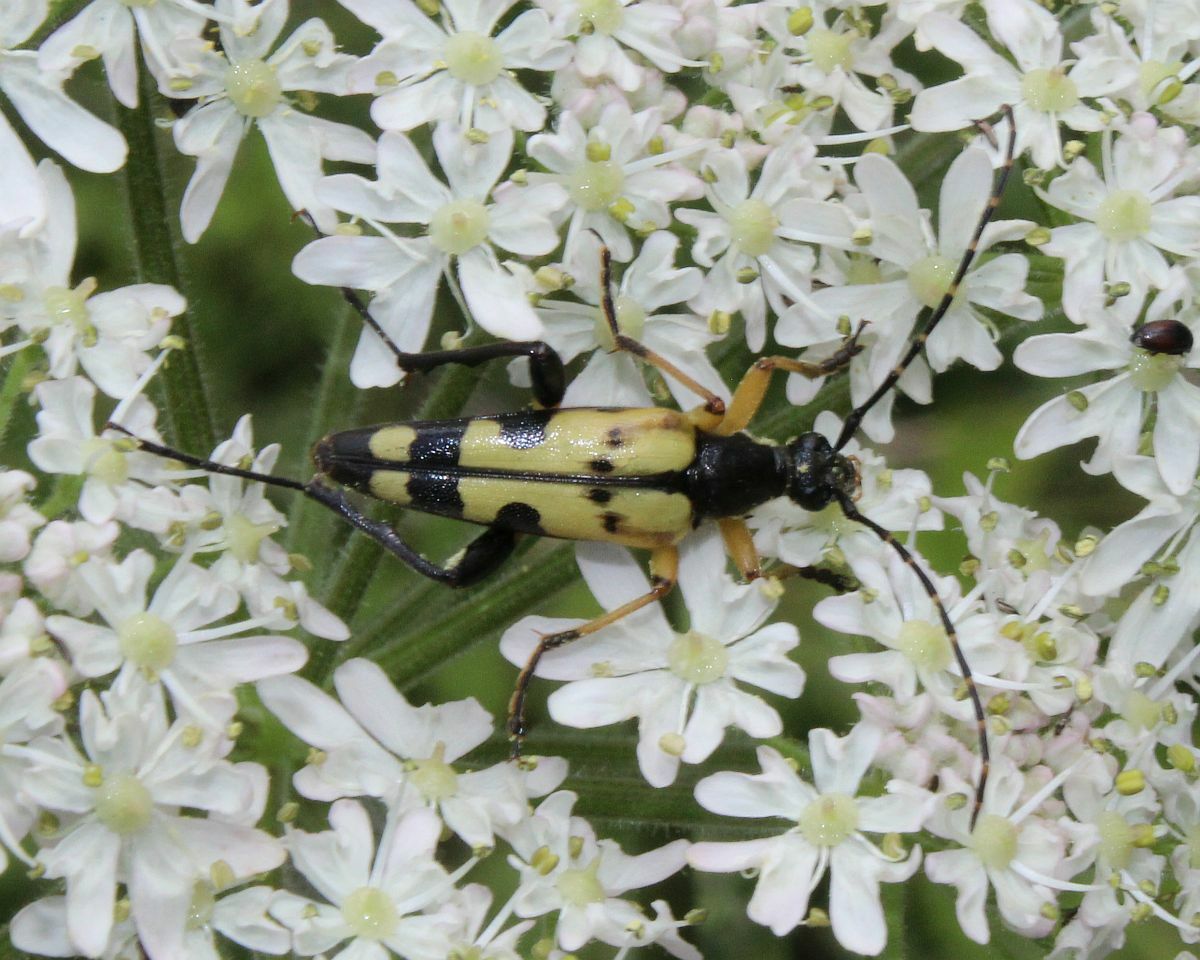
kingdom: Animalia
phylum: Arthropoda
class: Insecta
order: Coleoptera
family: Cerambycidae
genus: Rutpela
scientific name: Rutpela maculata
